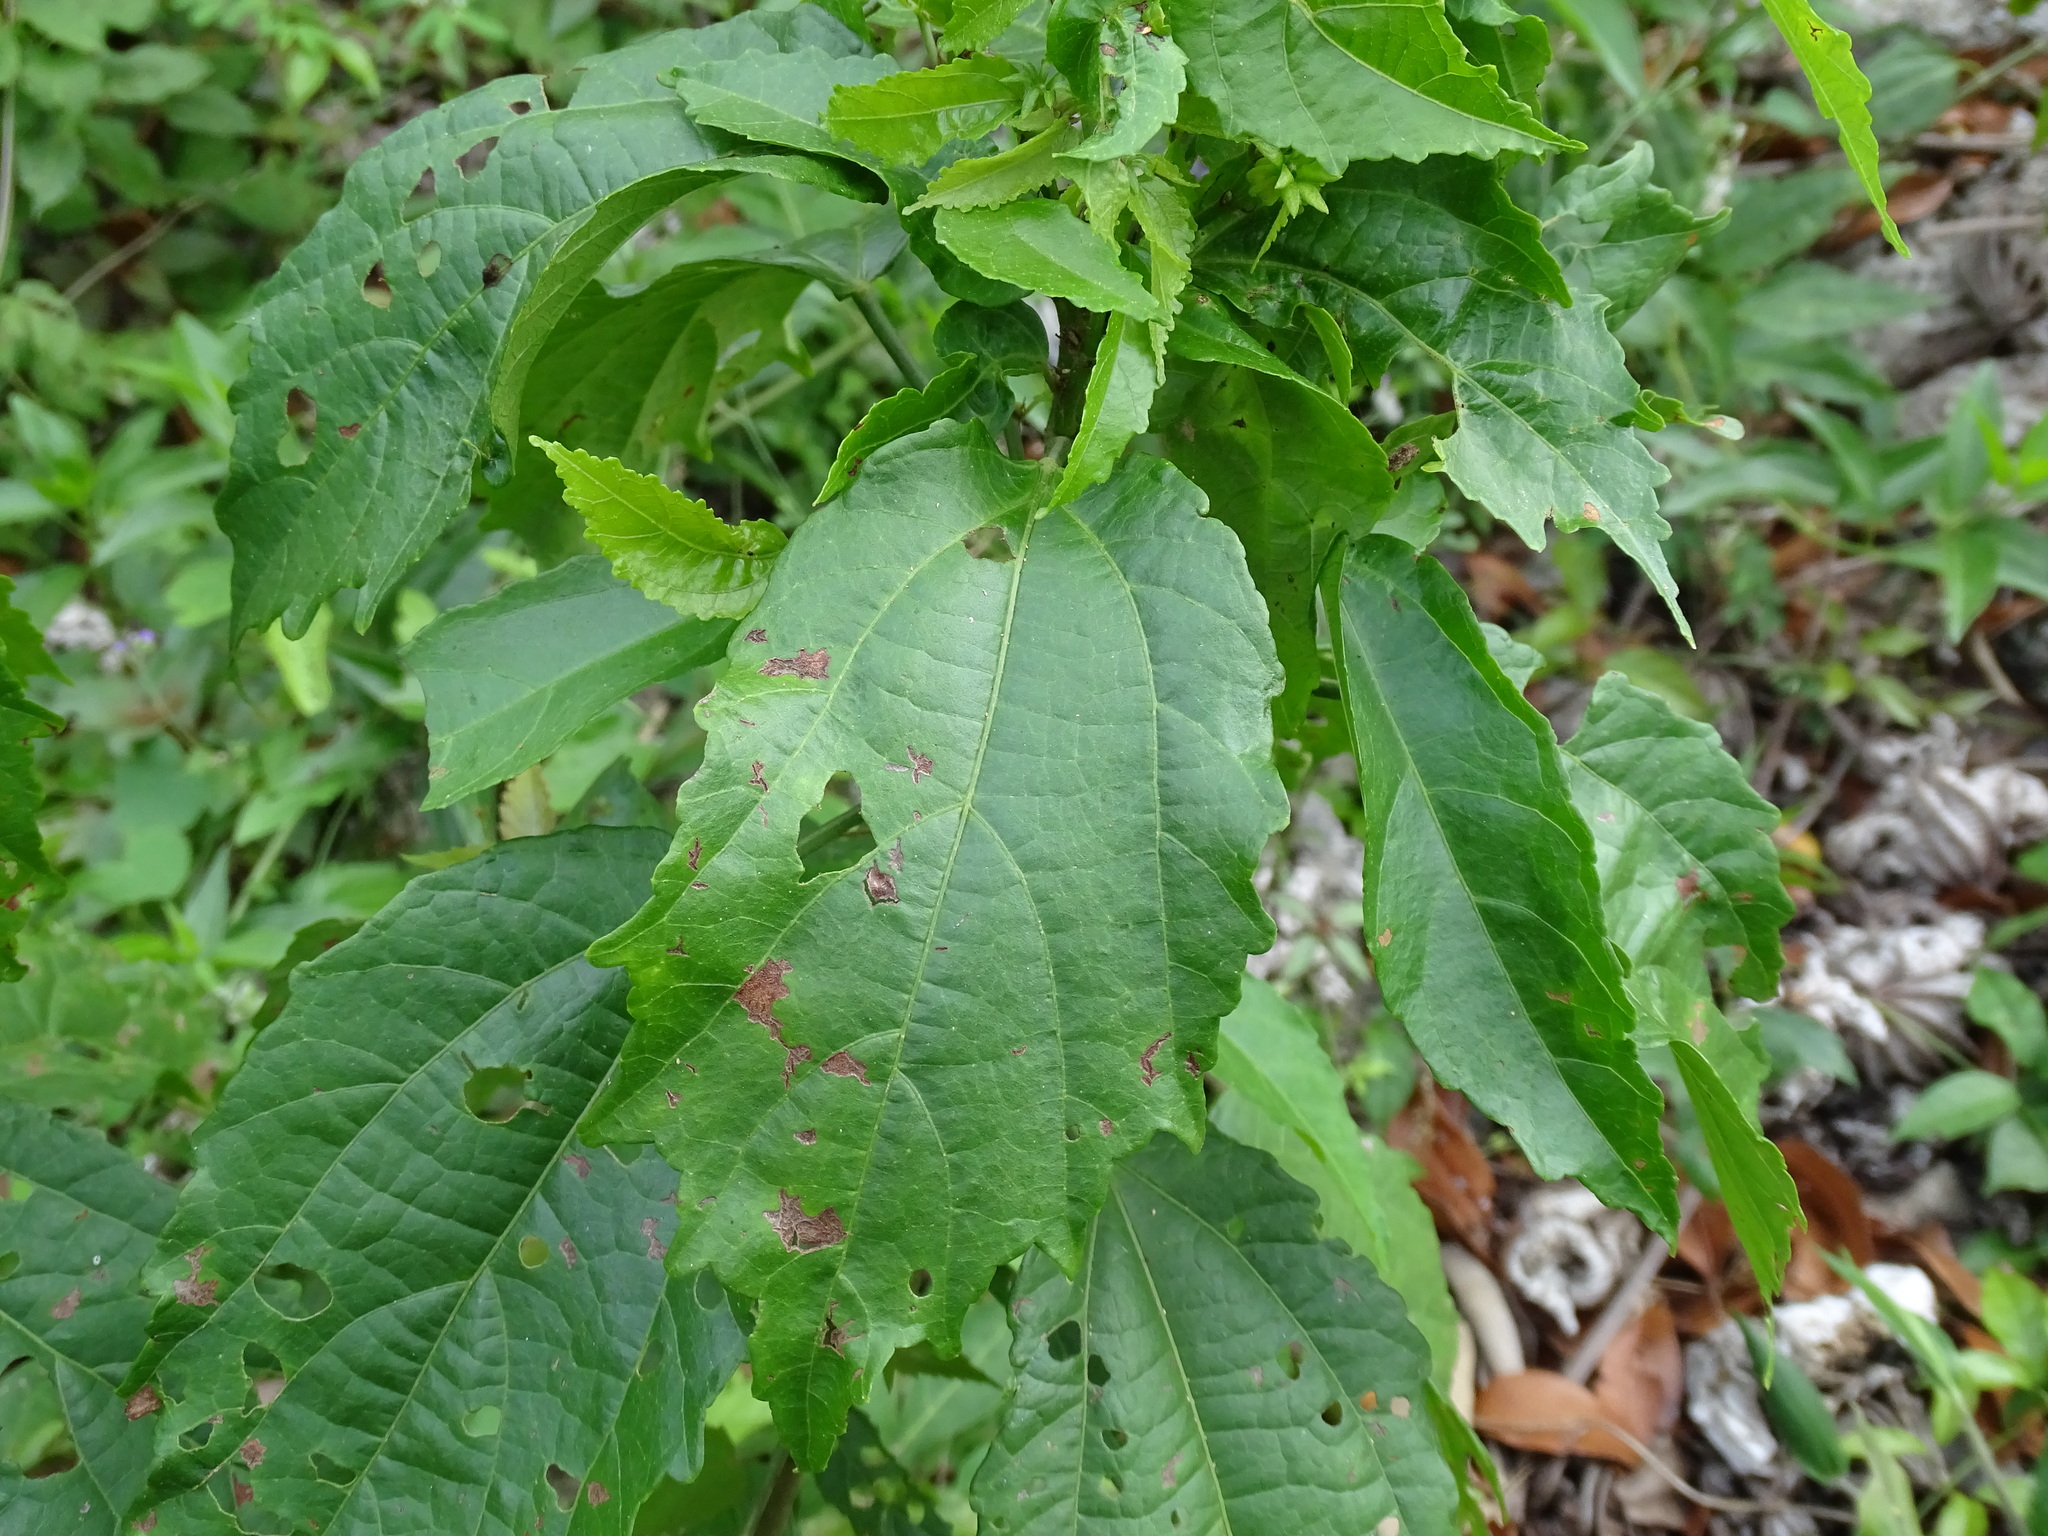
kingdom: Plantae
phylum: Tracheophyta
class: Magnoliopsida
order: Malvales
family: Malvaceae
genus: Malvaviscus
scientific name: Malvaviscus arboreus
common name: Wax mallow
